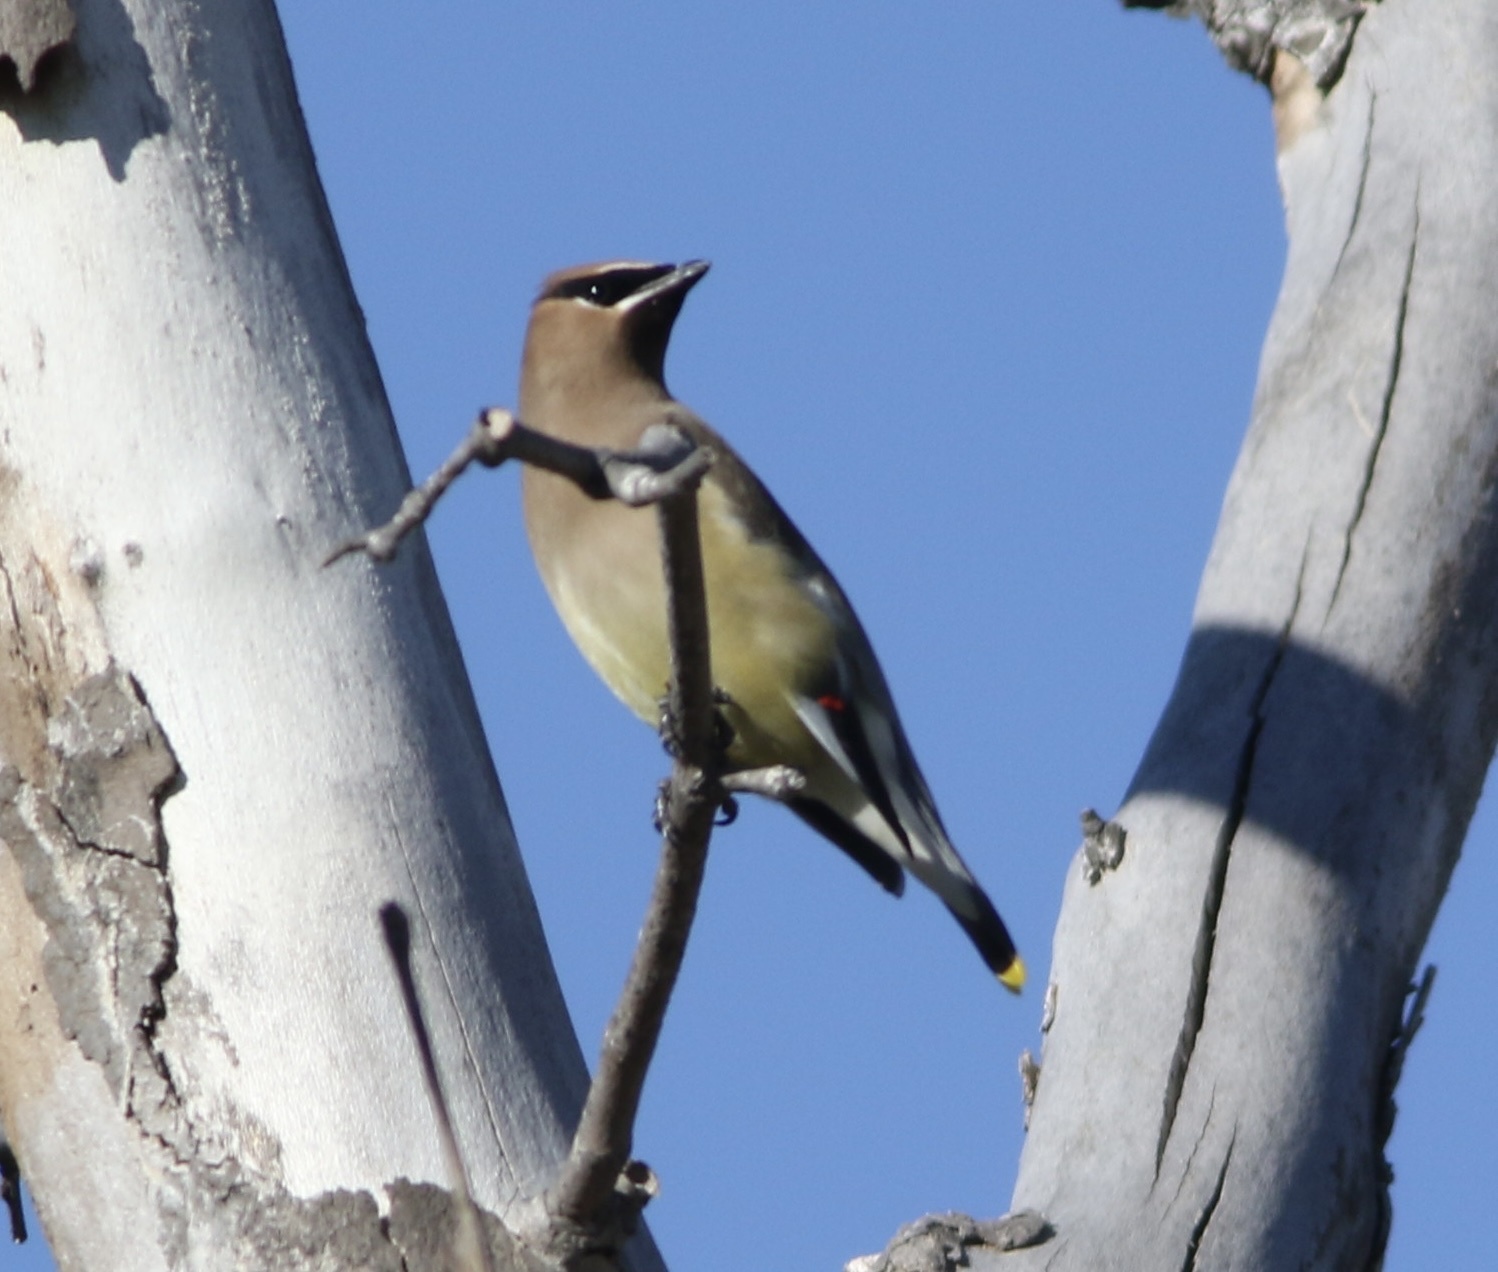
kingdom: Animalia
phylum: Chordata
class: Aves
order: Passeriformes
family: Bombycillidae
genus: Bombycilla
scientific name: Bombycilla cedrorum
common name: Cedar waxwing
